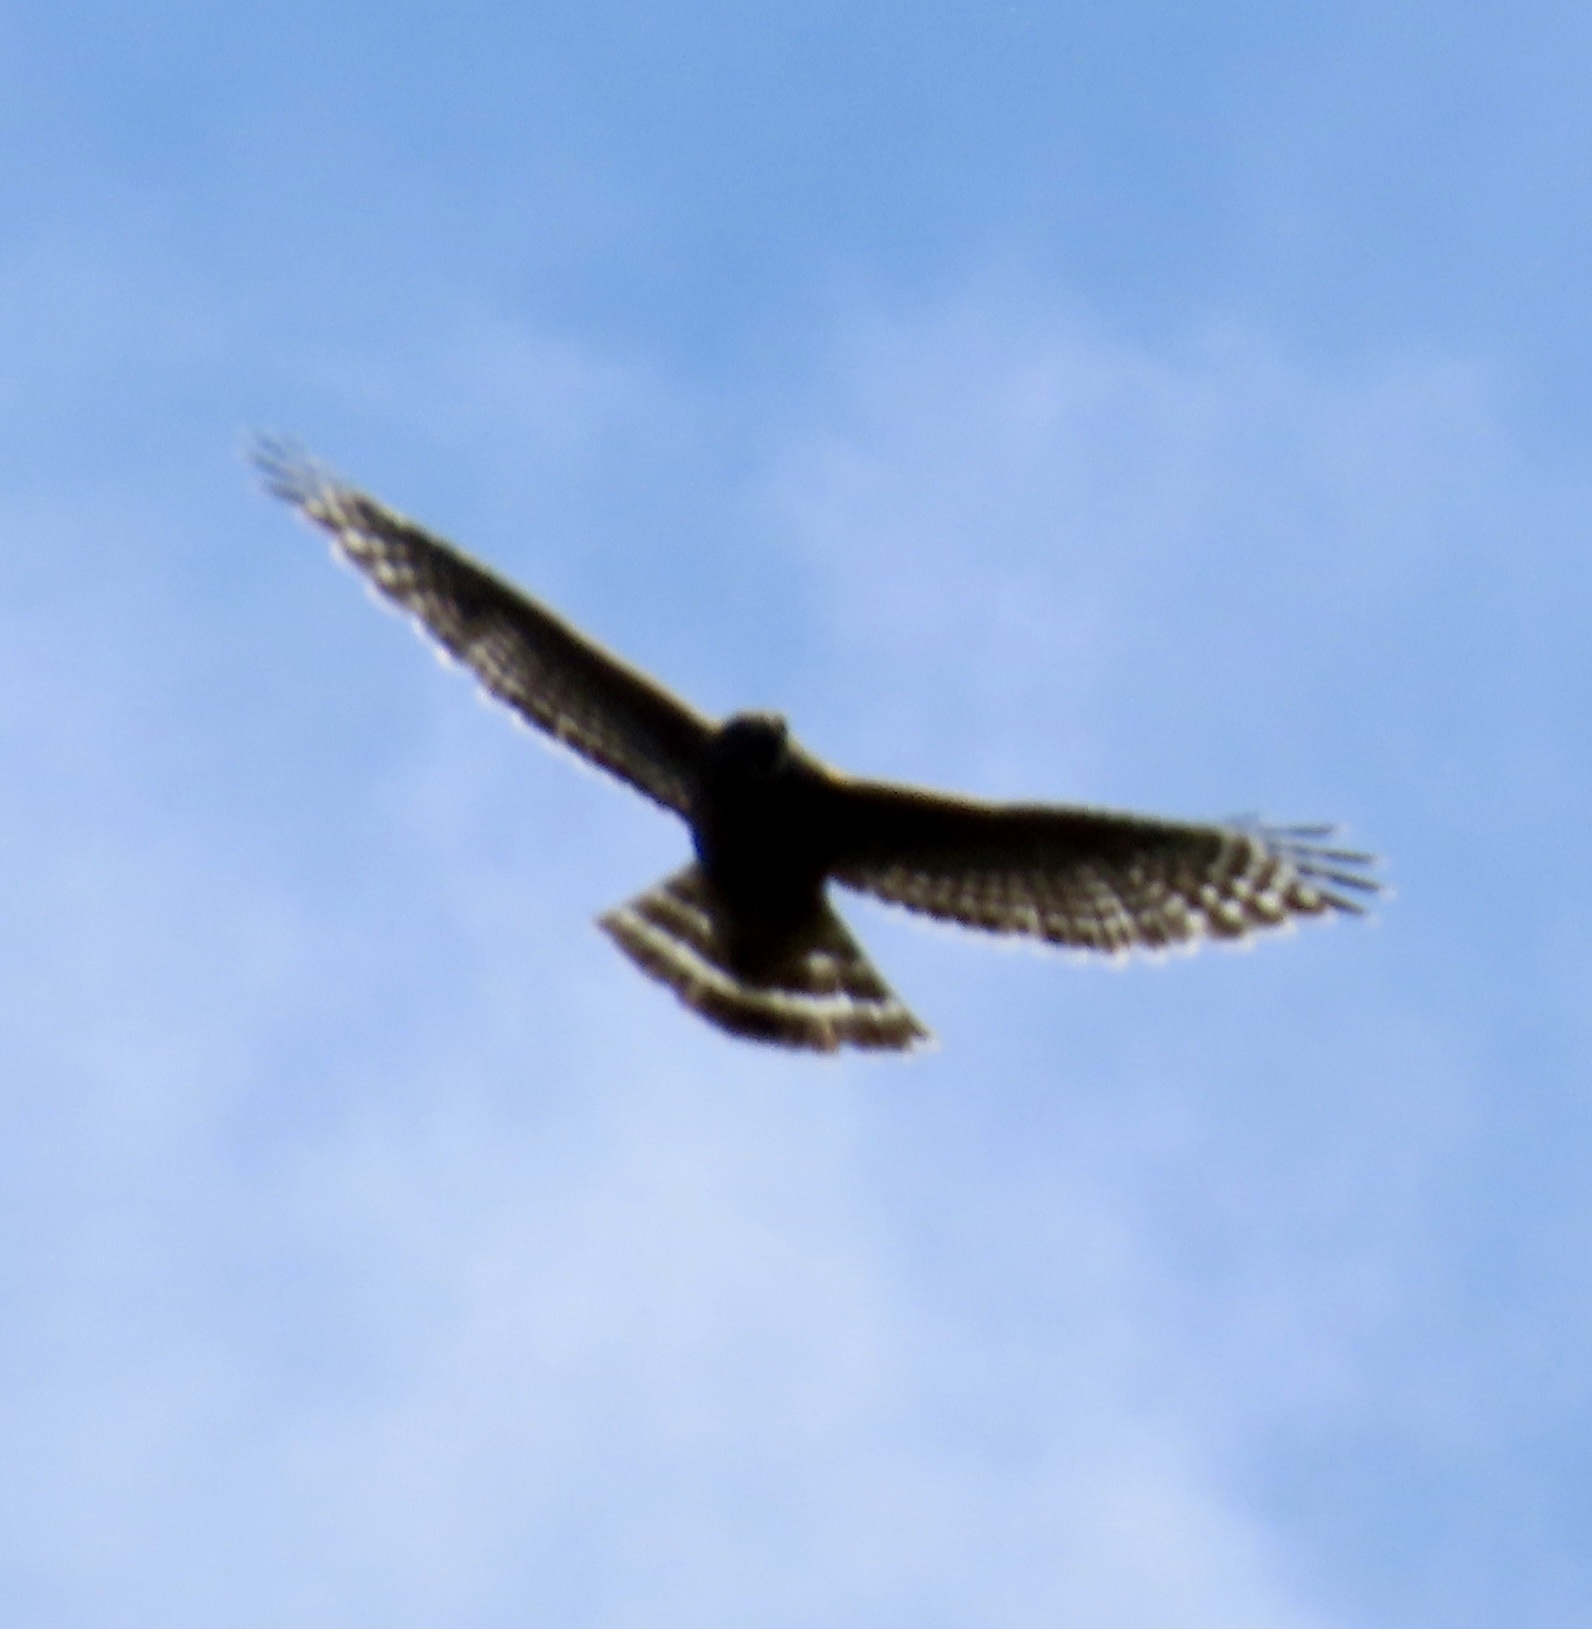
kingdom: Animalia
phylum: Chordata
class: Aves
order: Accipitriformes
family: Accipitridae
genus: Buteo
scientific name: Buteo lineatus
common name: Red-shouldered hawk
